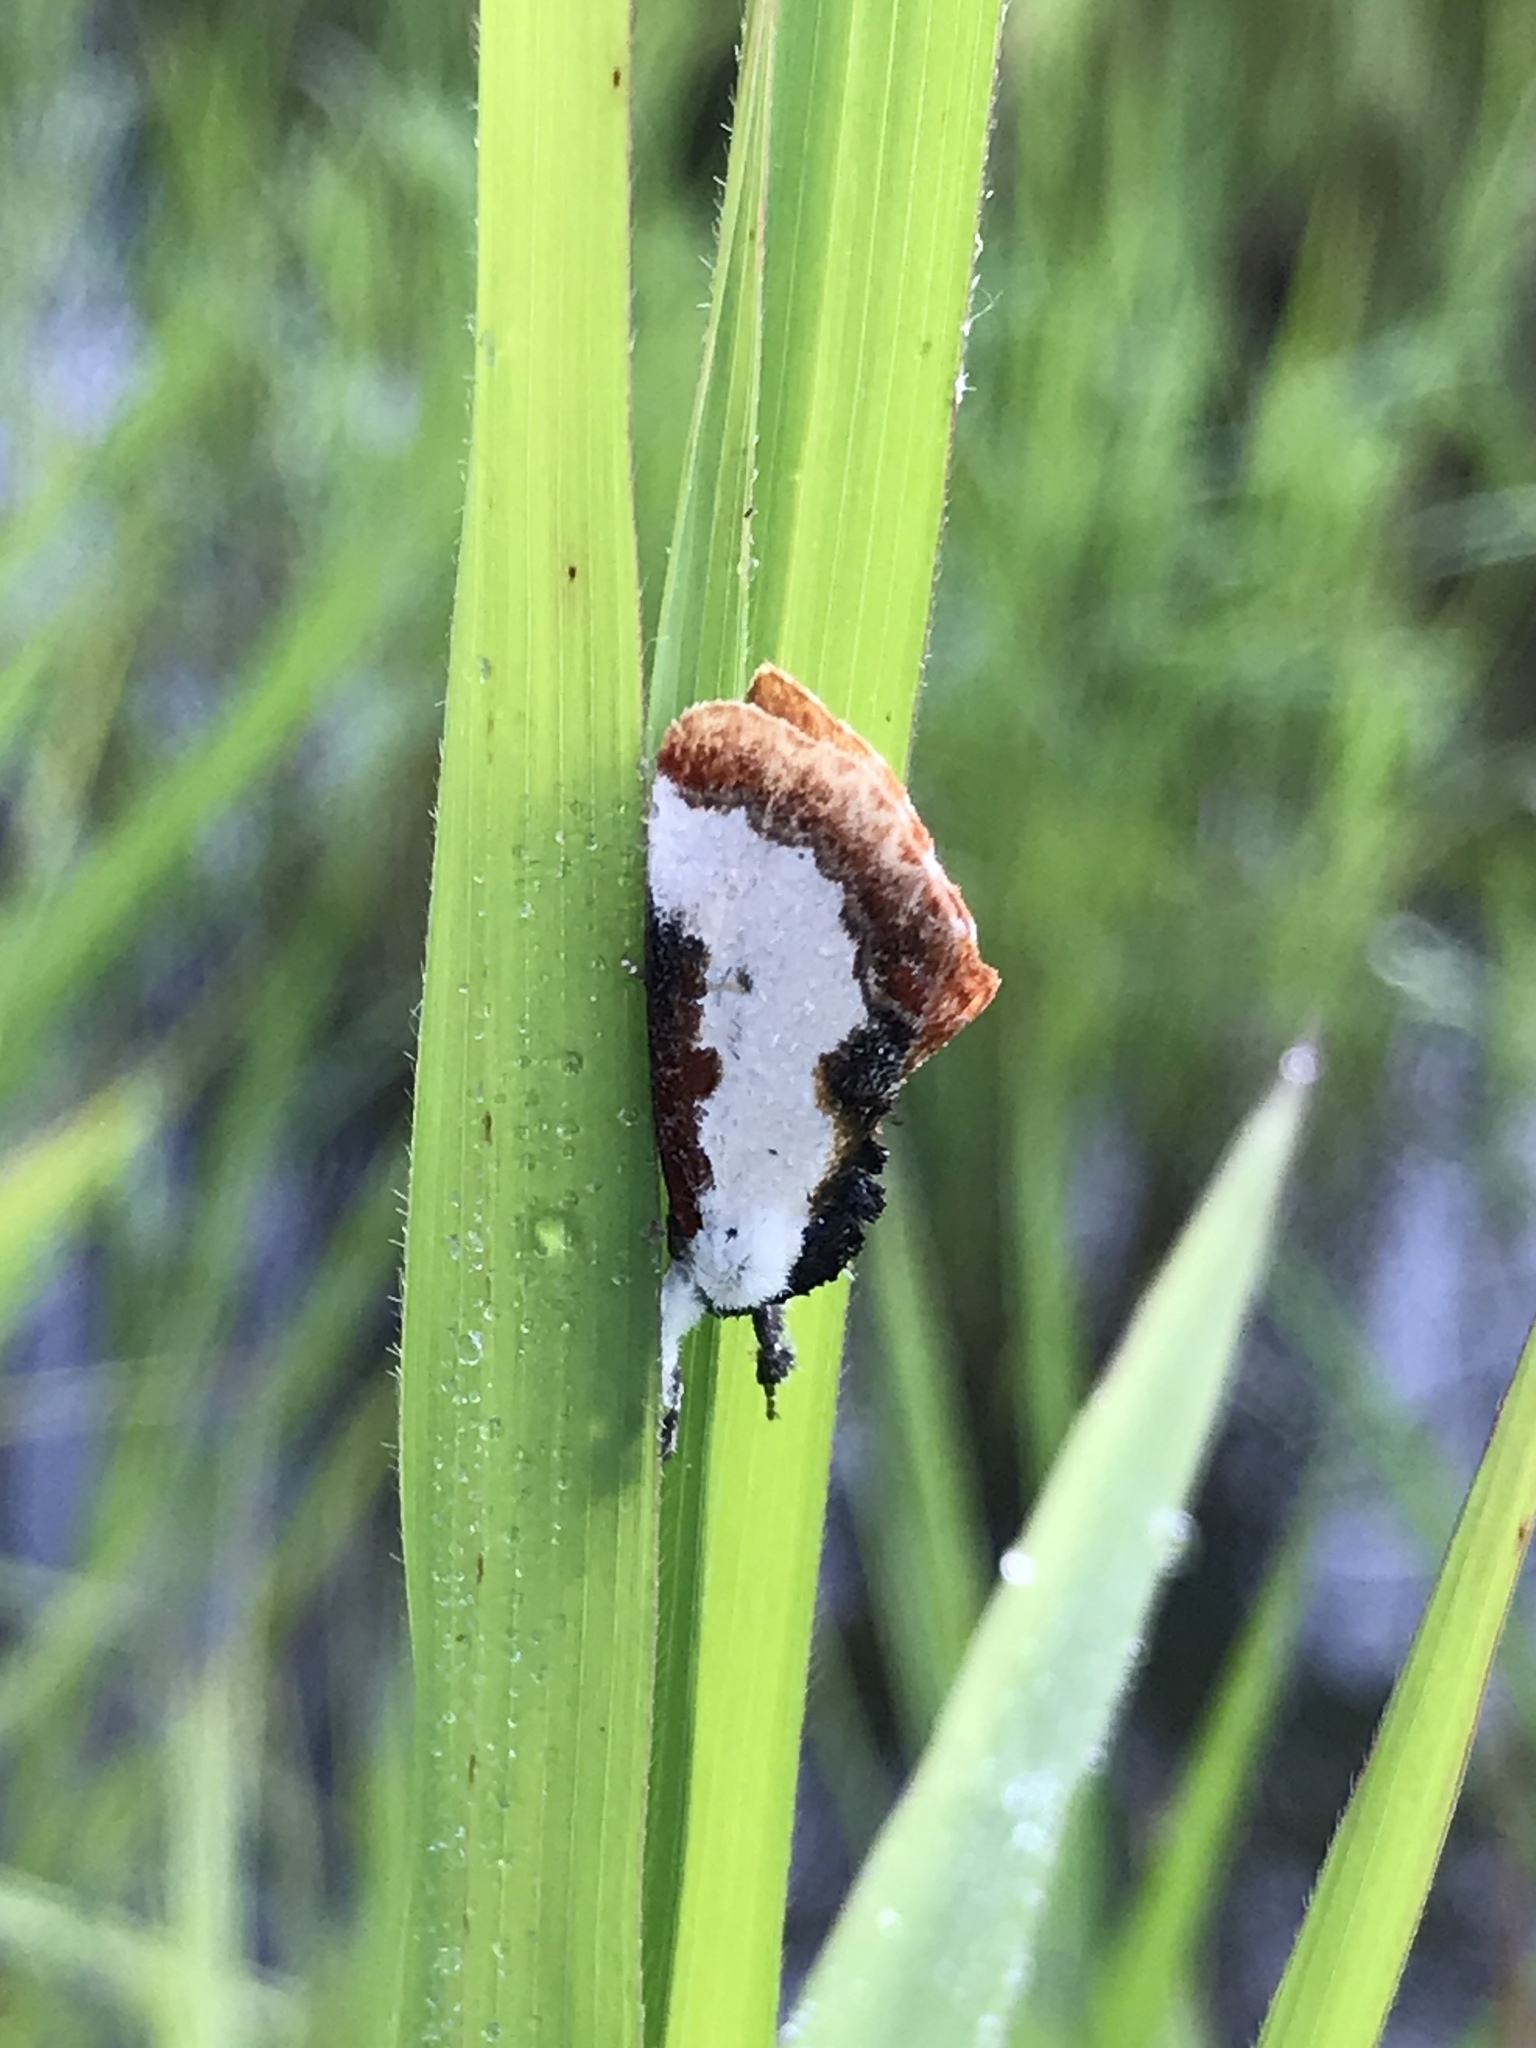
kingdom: Animalia
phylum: Arthropoda
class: Insecta
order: Lepidoptera
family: Noctuidae
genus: Eudryas
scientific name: Eudryas unio
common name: Pearly wood-nymph
